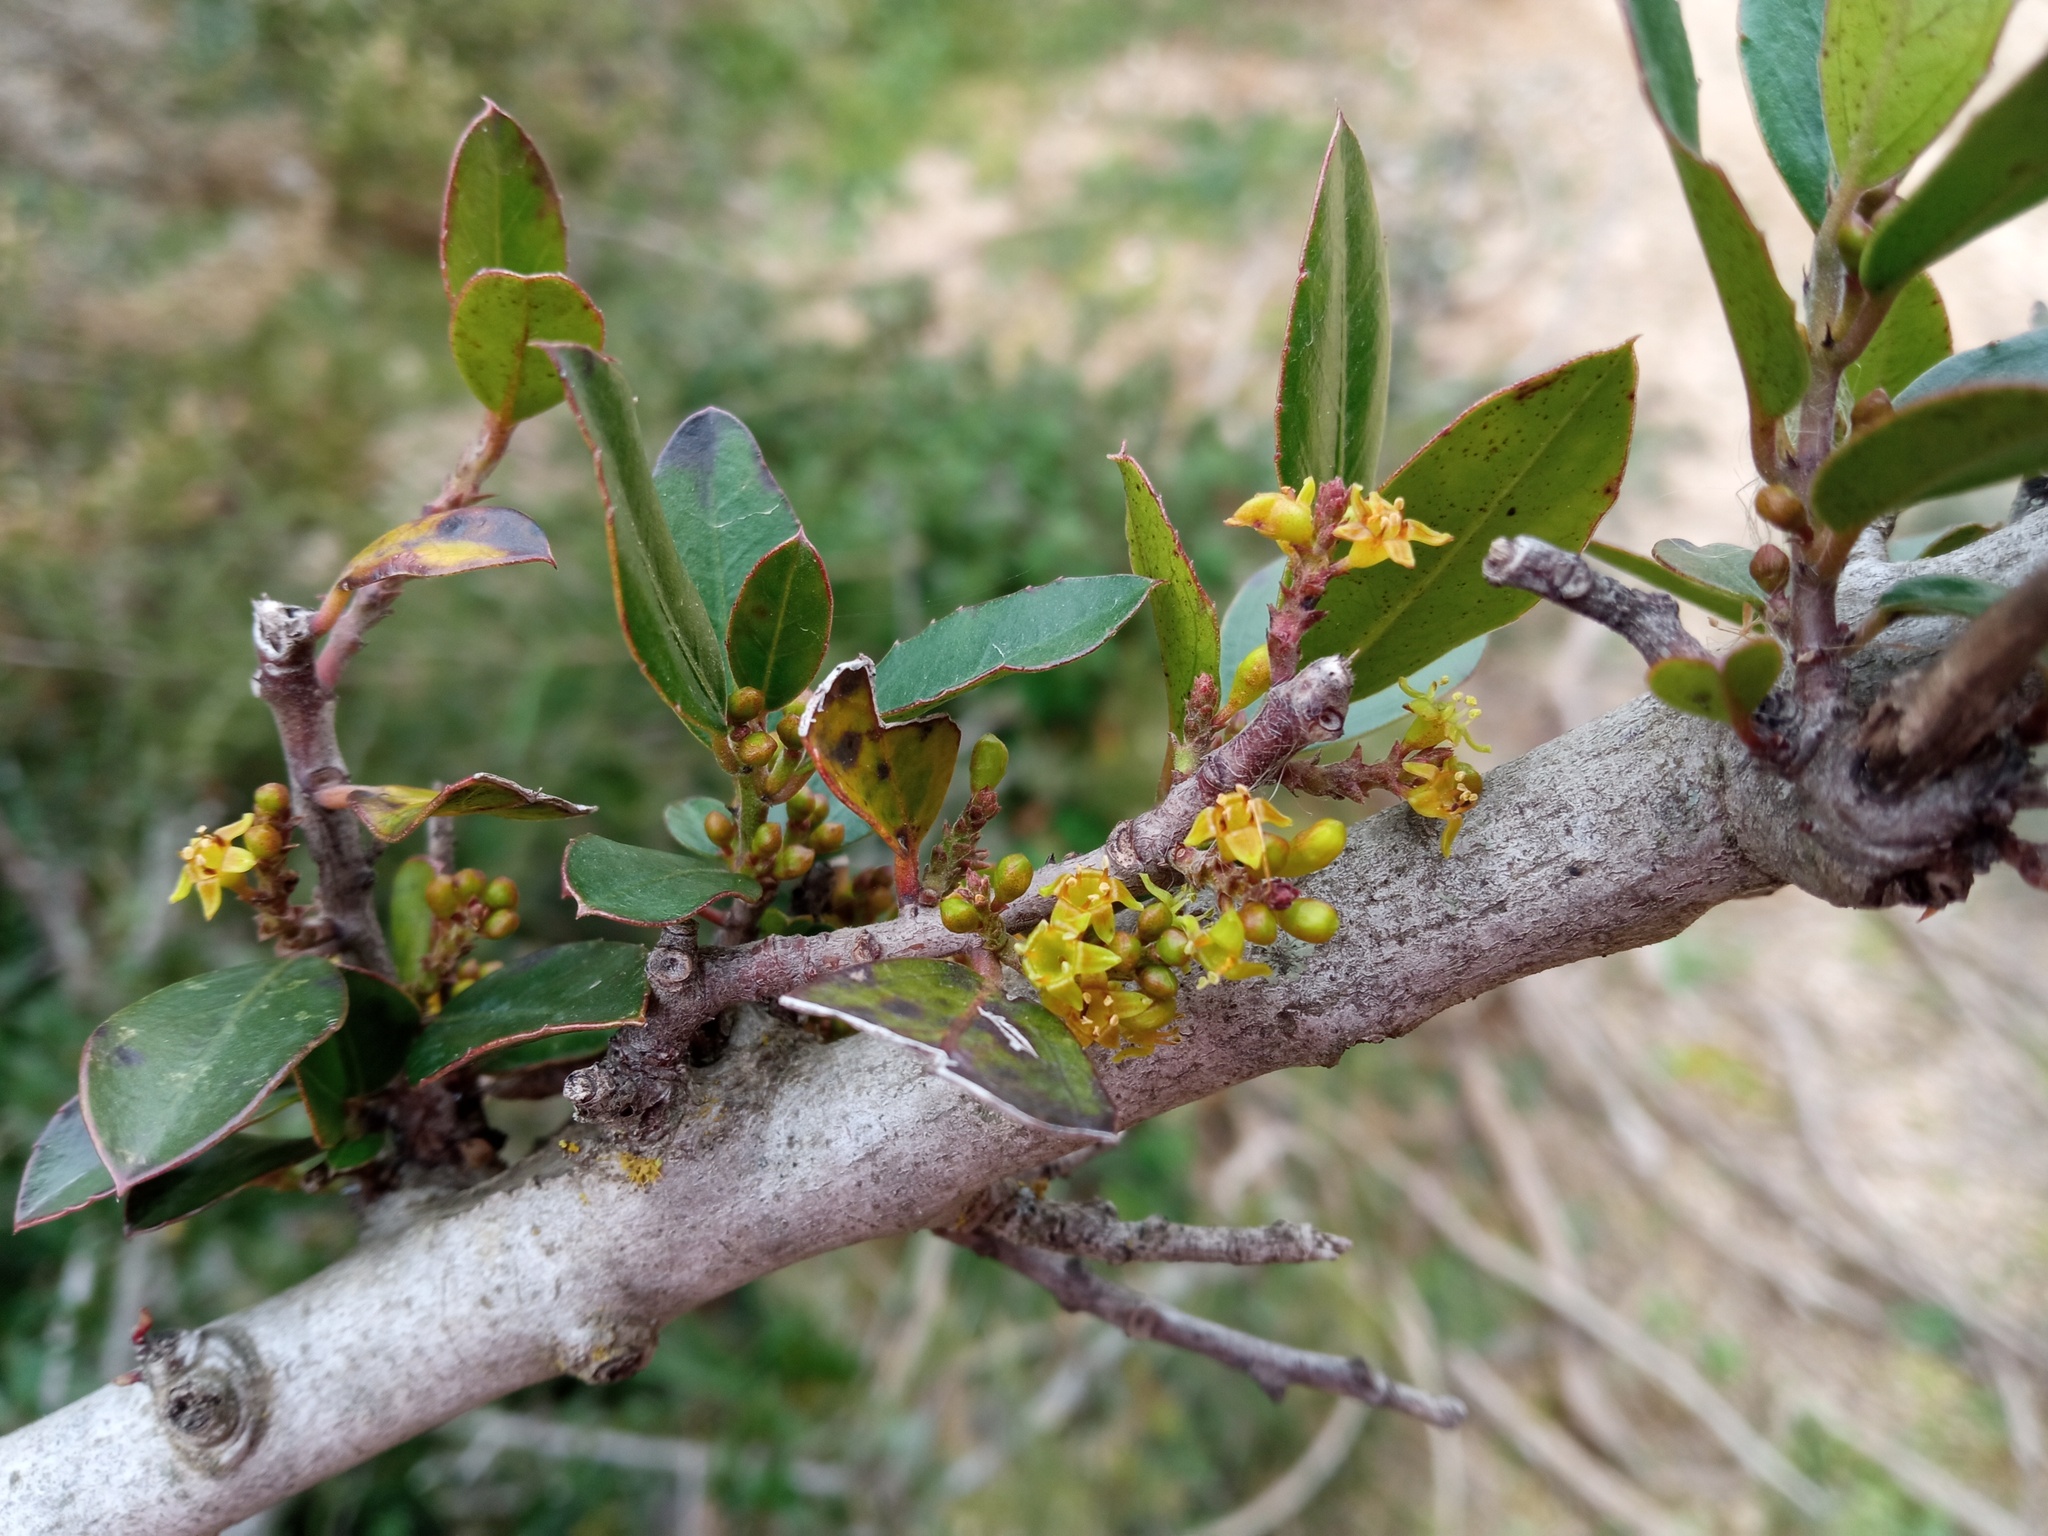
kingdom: Plantae
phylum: Tracheophyta
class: Magnoliopsida
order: Rosales
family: Rhamnaceae
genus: Rhamnus
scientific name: Rhamnus alaternus
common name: Mediterranean buckthorn
